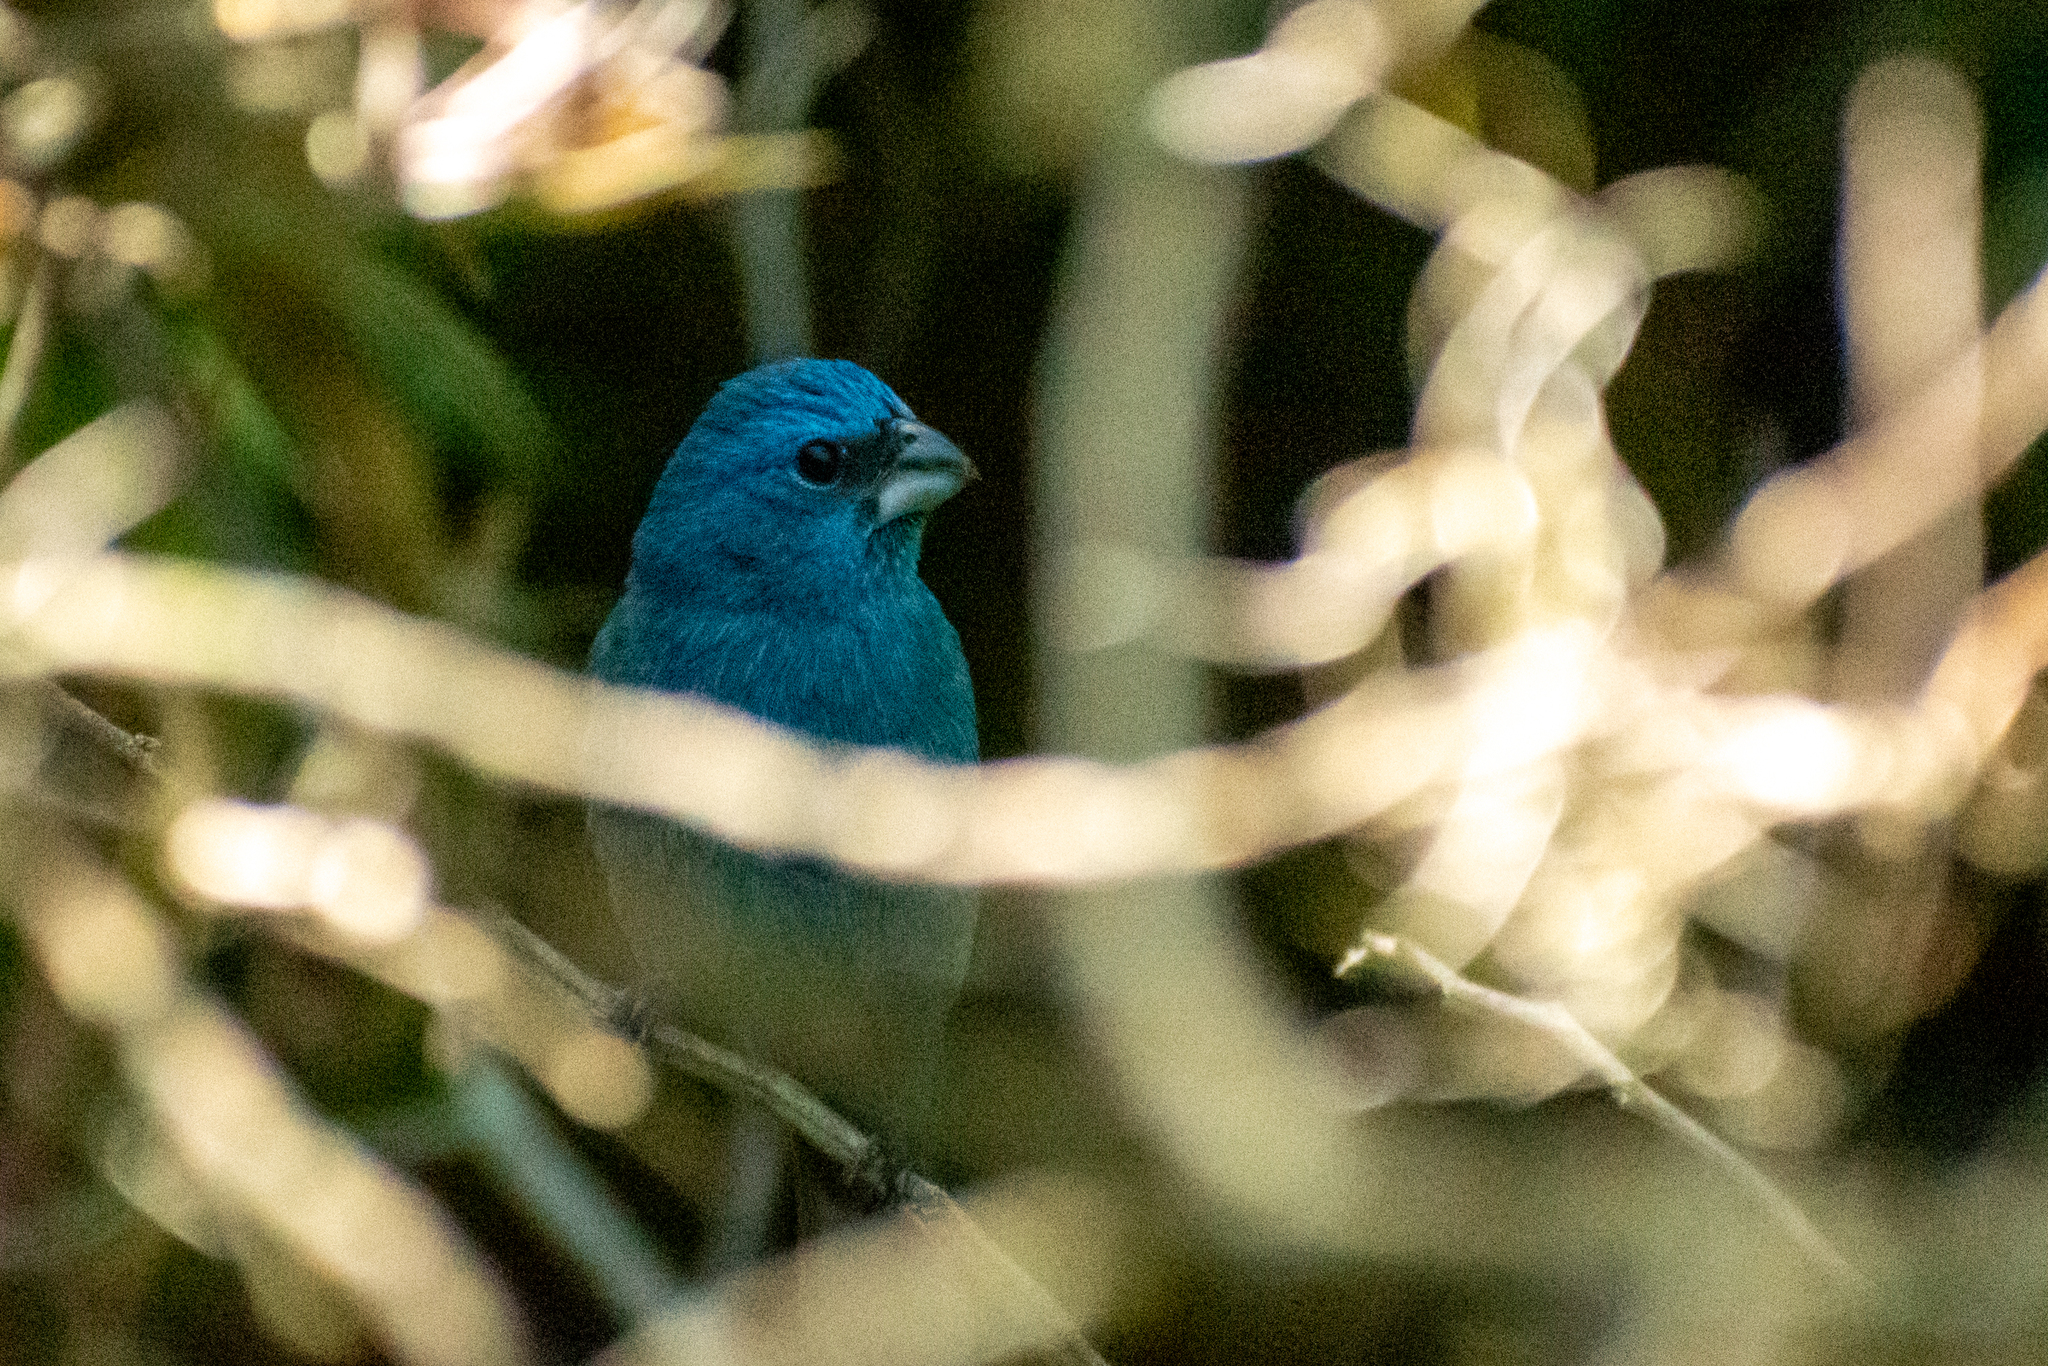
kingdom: Animalia
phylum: Chordata
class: Aves
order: Passeriformes
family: Cardinalidae
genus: Cyanoloxia
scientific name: Cyanoloxia glaucocaerulea
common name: Glaucous-blue grosbeak
